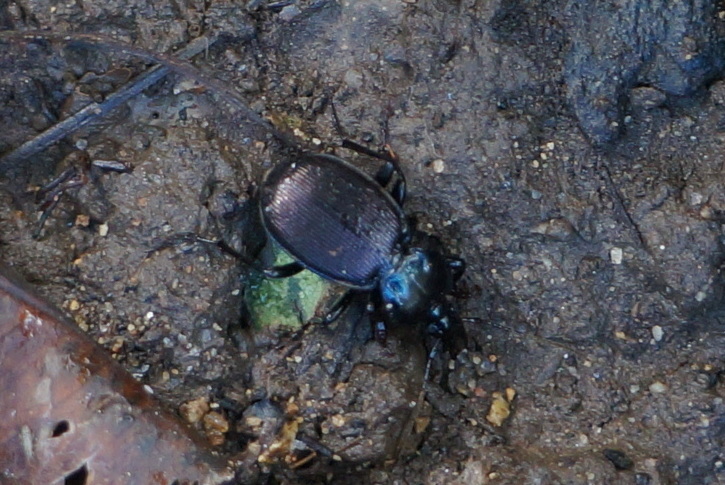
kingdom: Animalia
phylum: Arthropoda
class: Insecta
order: Coleoptera
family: Carabidae
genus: Sphaeroderus
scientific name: Sphaeroderus stenostomus
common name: Small snail-eating ground beetle
